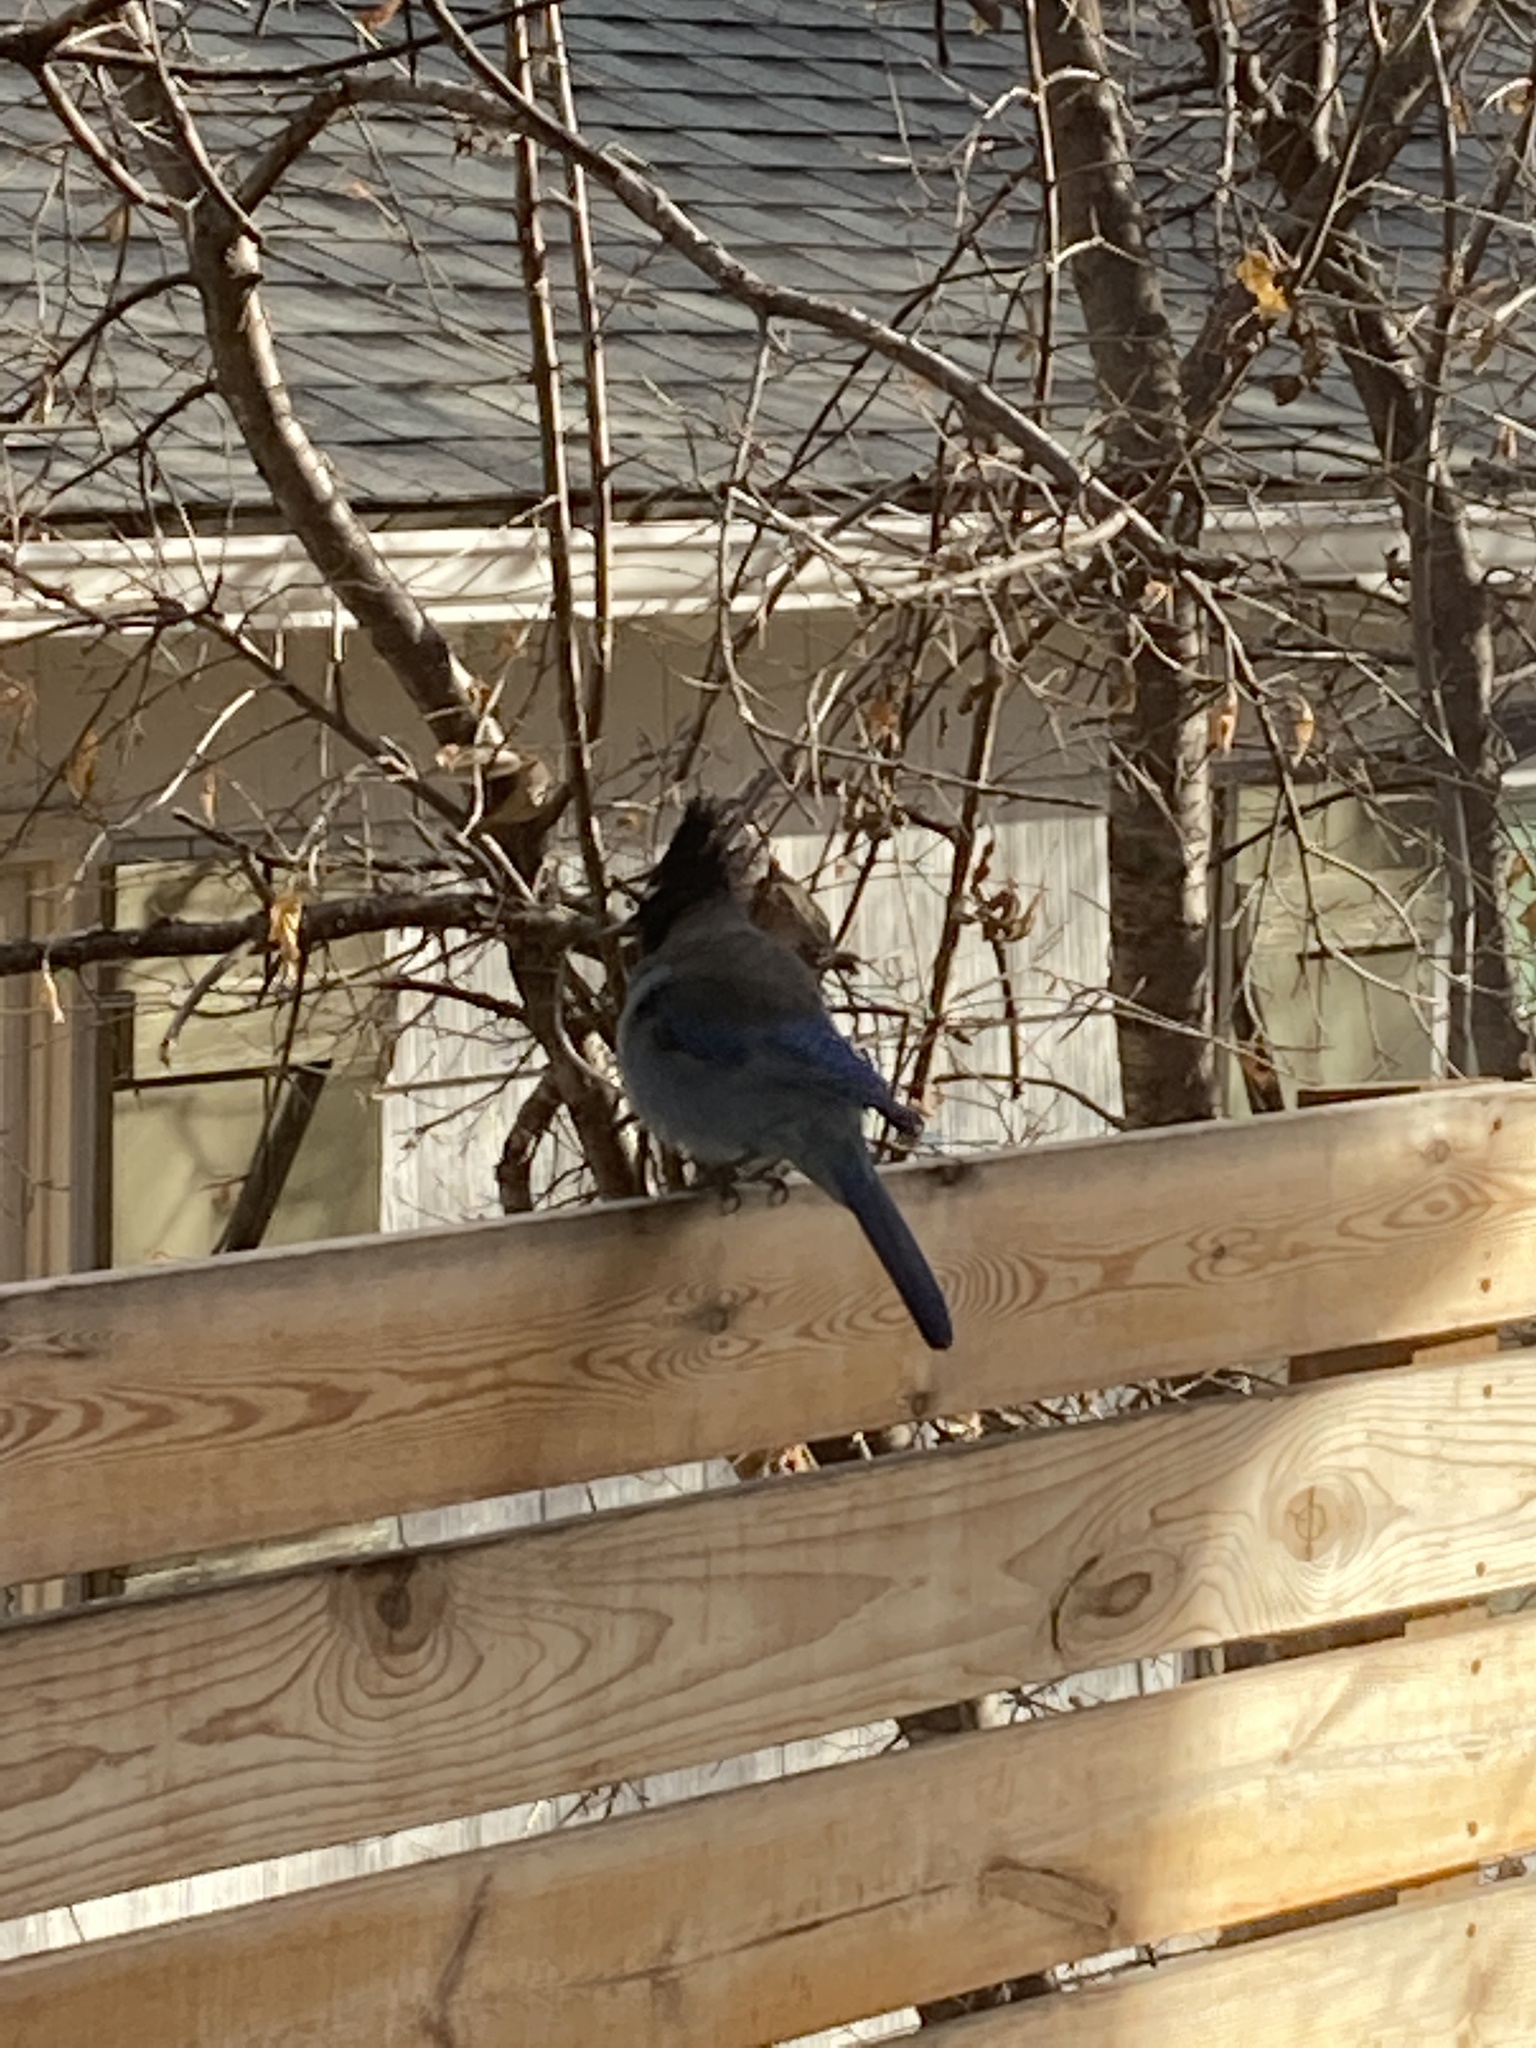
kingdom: Animalia
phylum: Chordata
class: Aves
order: Passeriformes
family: Corvidae
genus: Cyanocitta
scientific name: Cyanocitta stelleri
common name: Steller's jay
